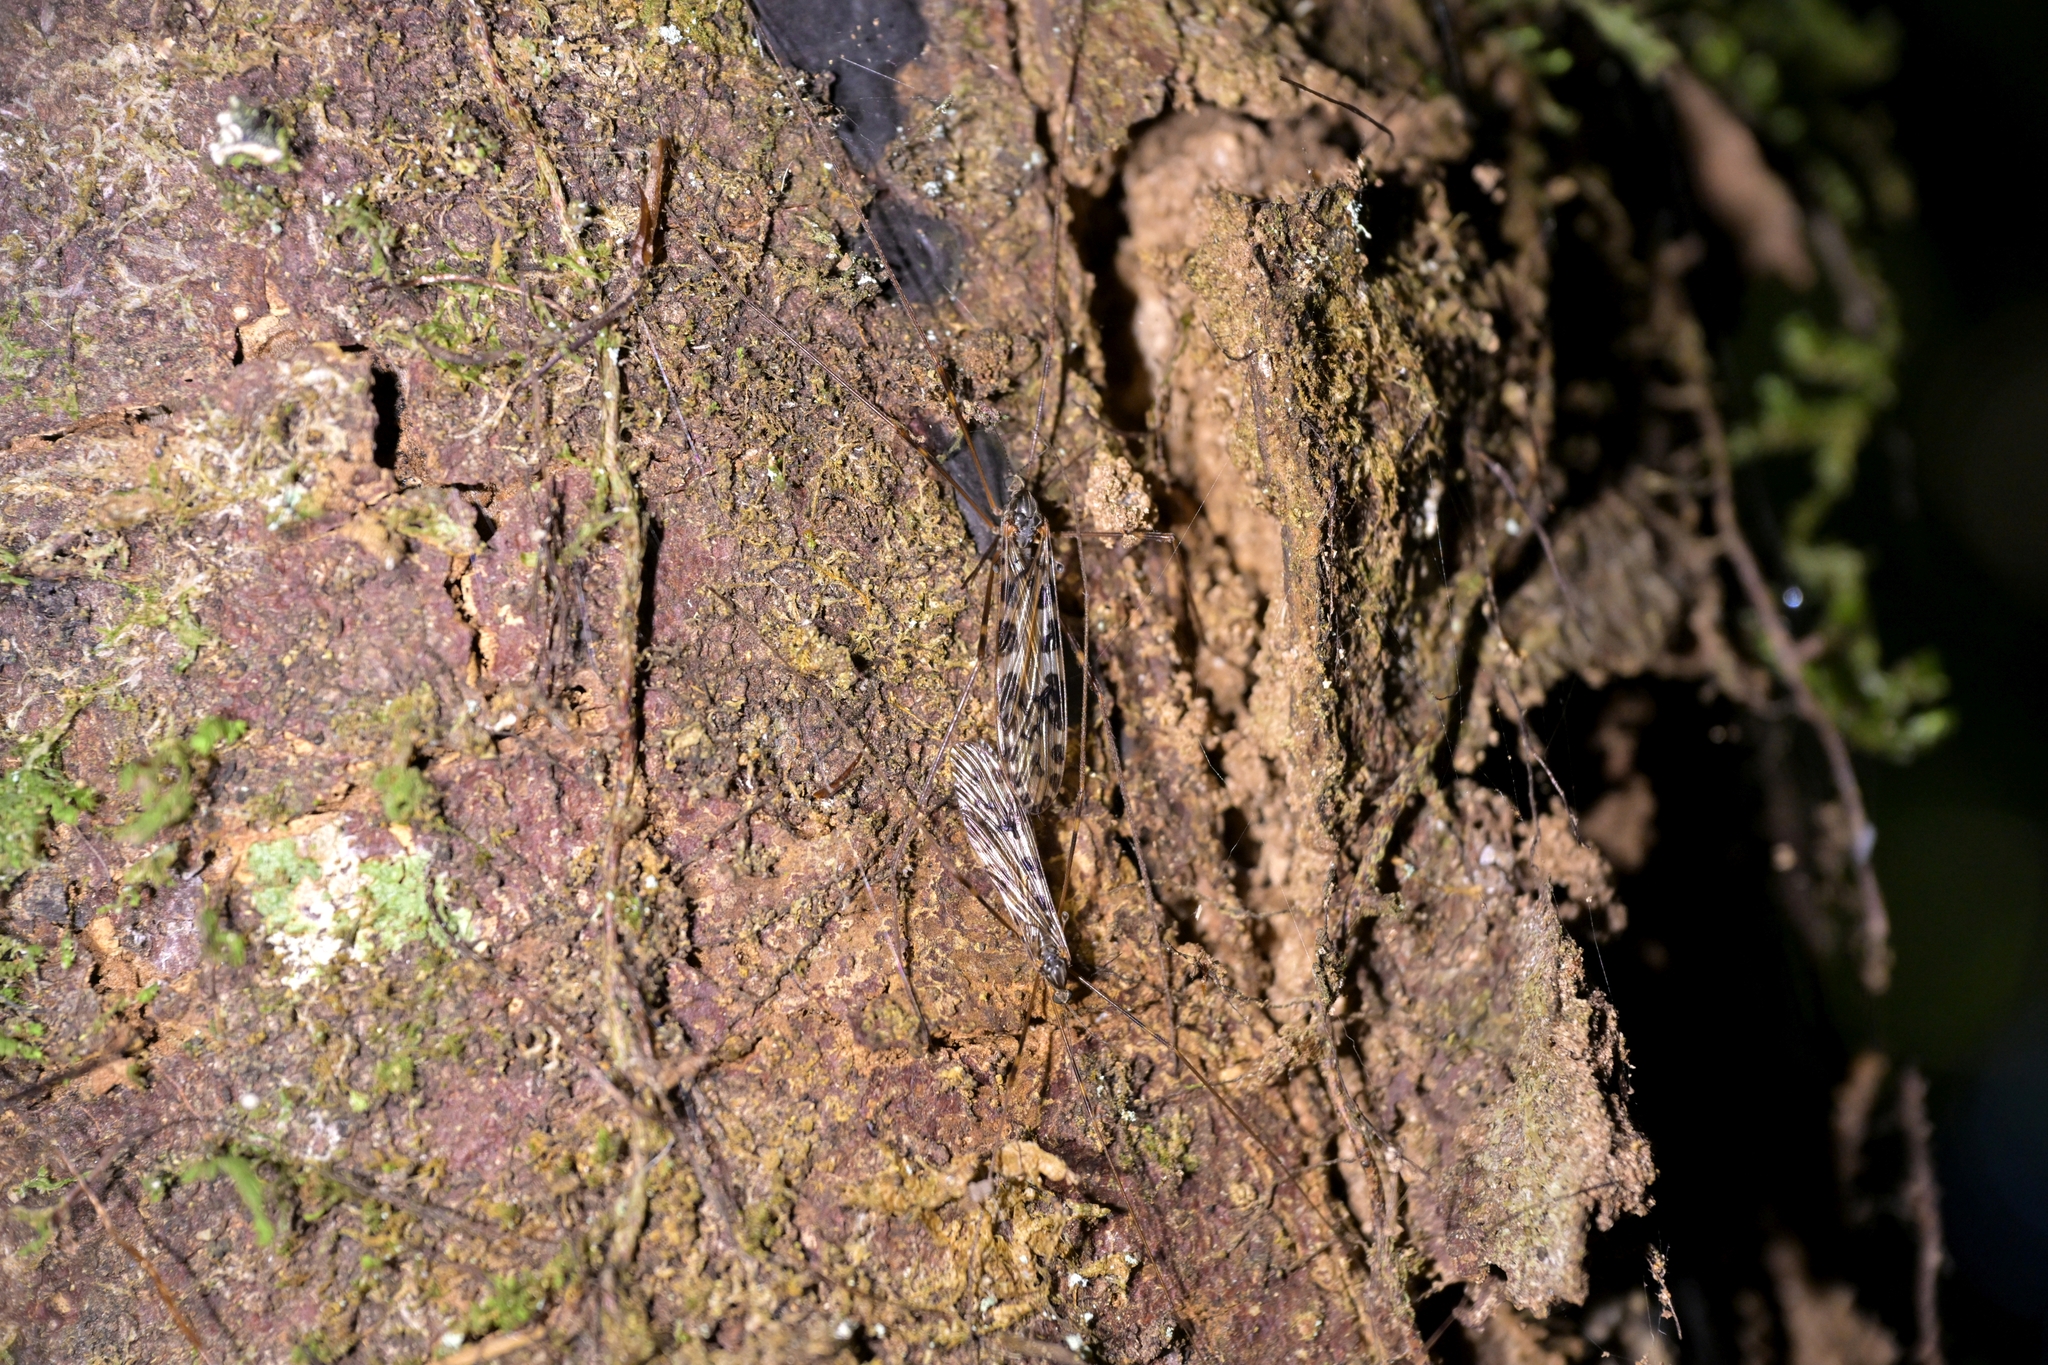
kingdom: Animalia
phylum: Arthropoda
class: Insecta
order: Diptera
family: Limoniidae
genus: Austrolimnophila
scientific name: Austrolimnophila oculata
